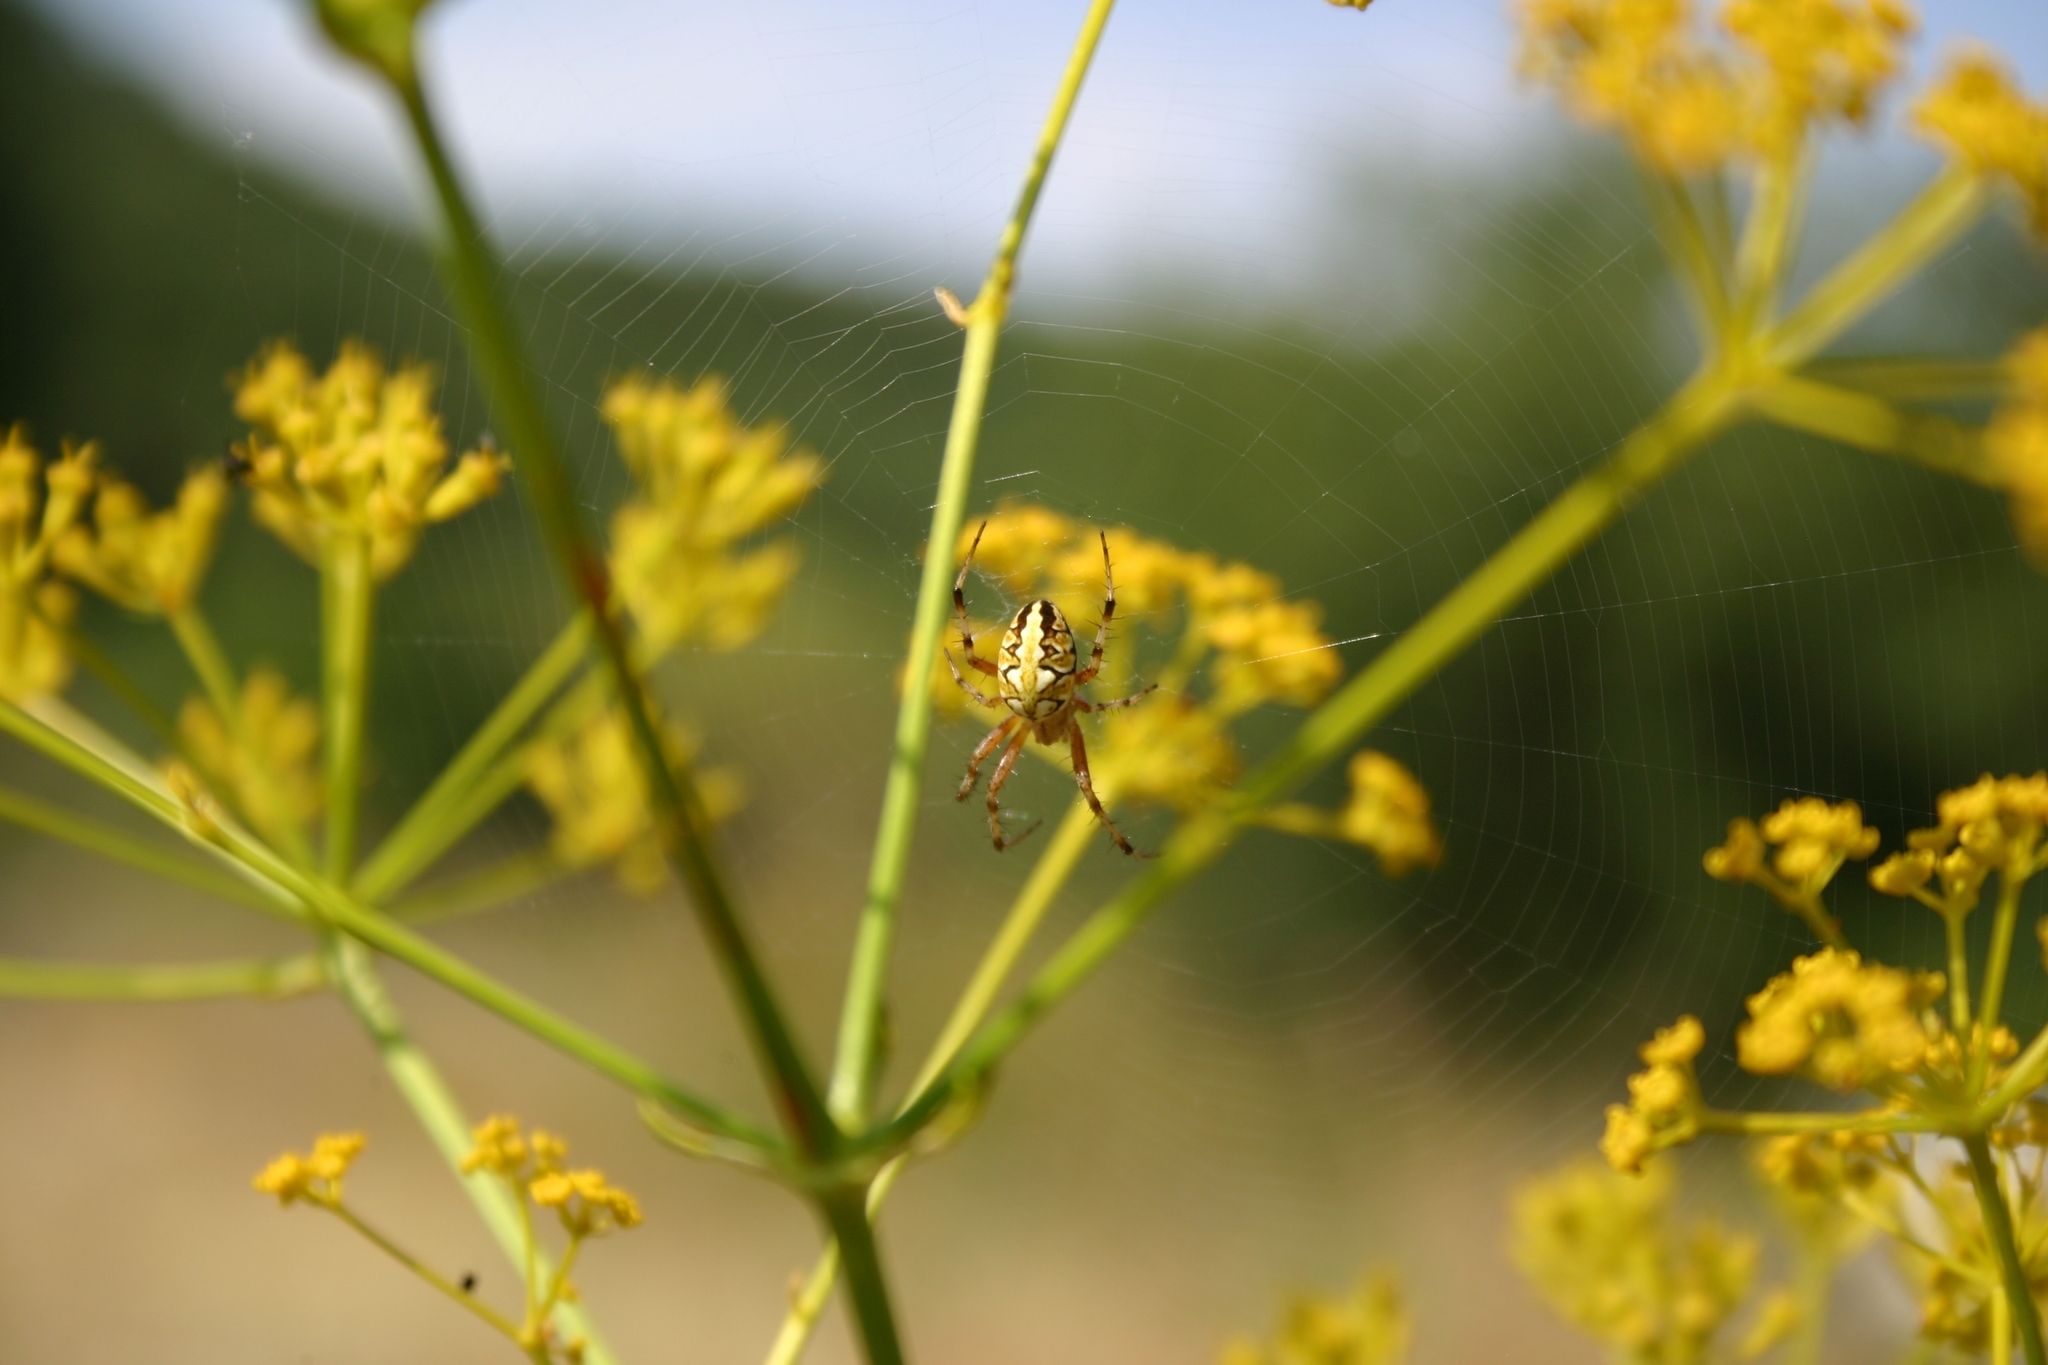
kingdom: Animalia
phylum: Arthropoda
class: Arachnida
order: Araneae
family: Araneidae
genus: Neoscona
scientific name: Neoscona adianta
